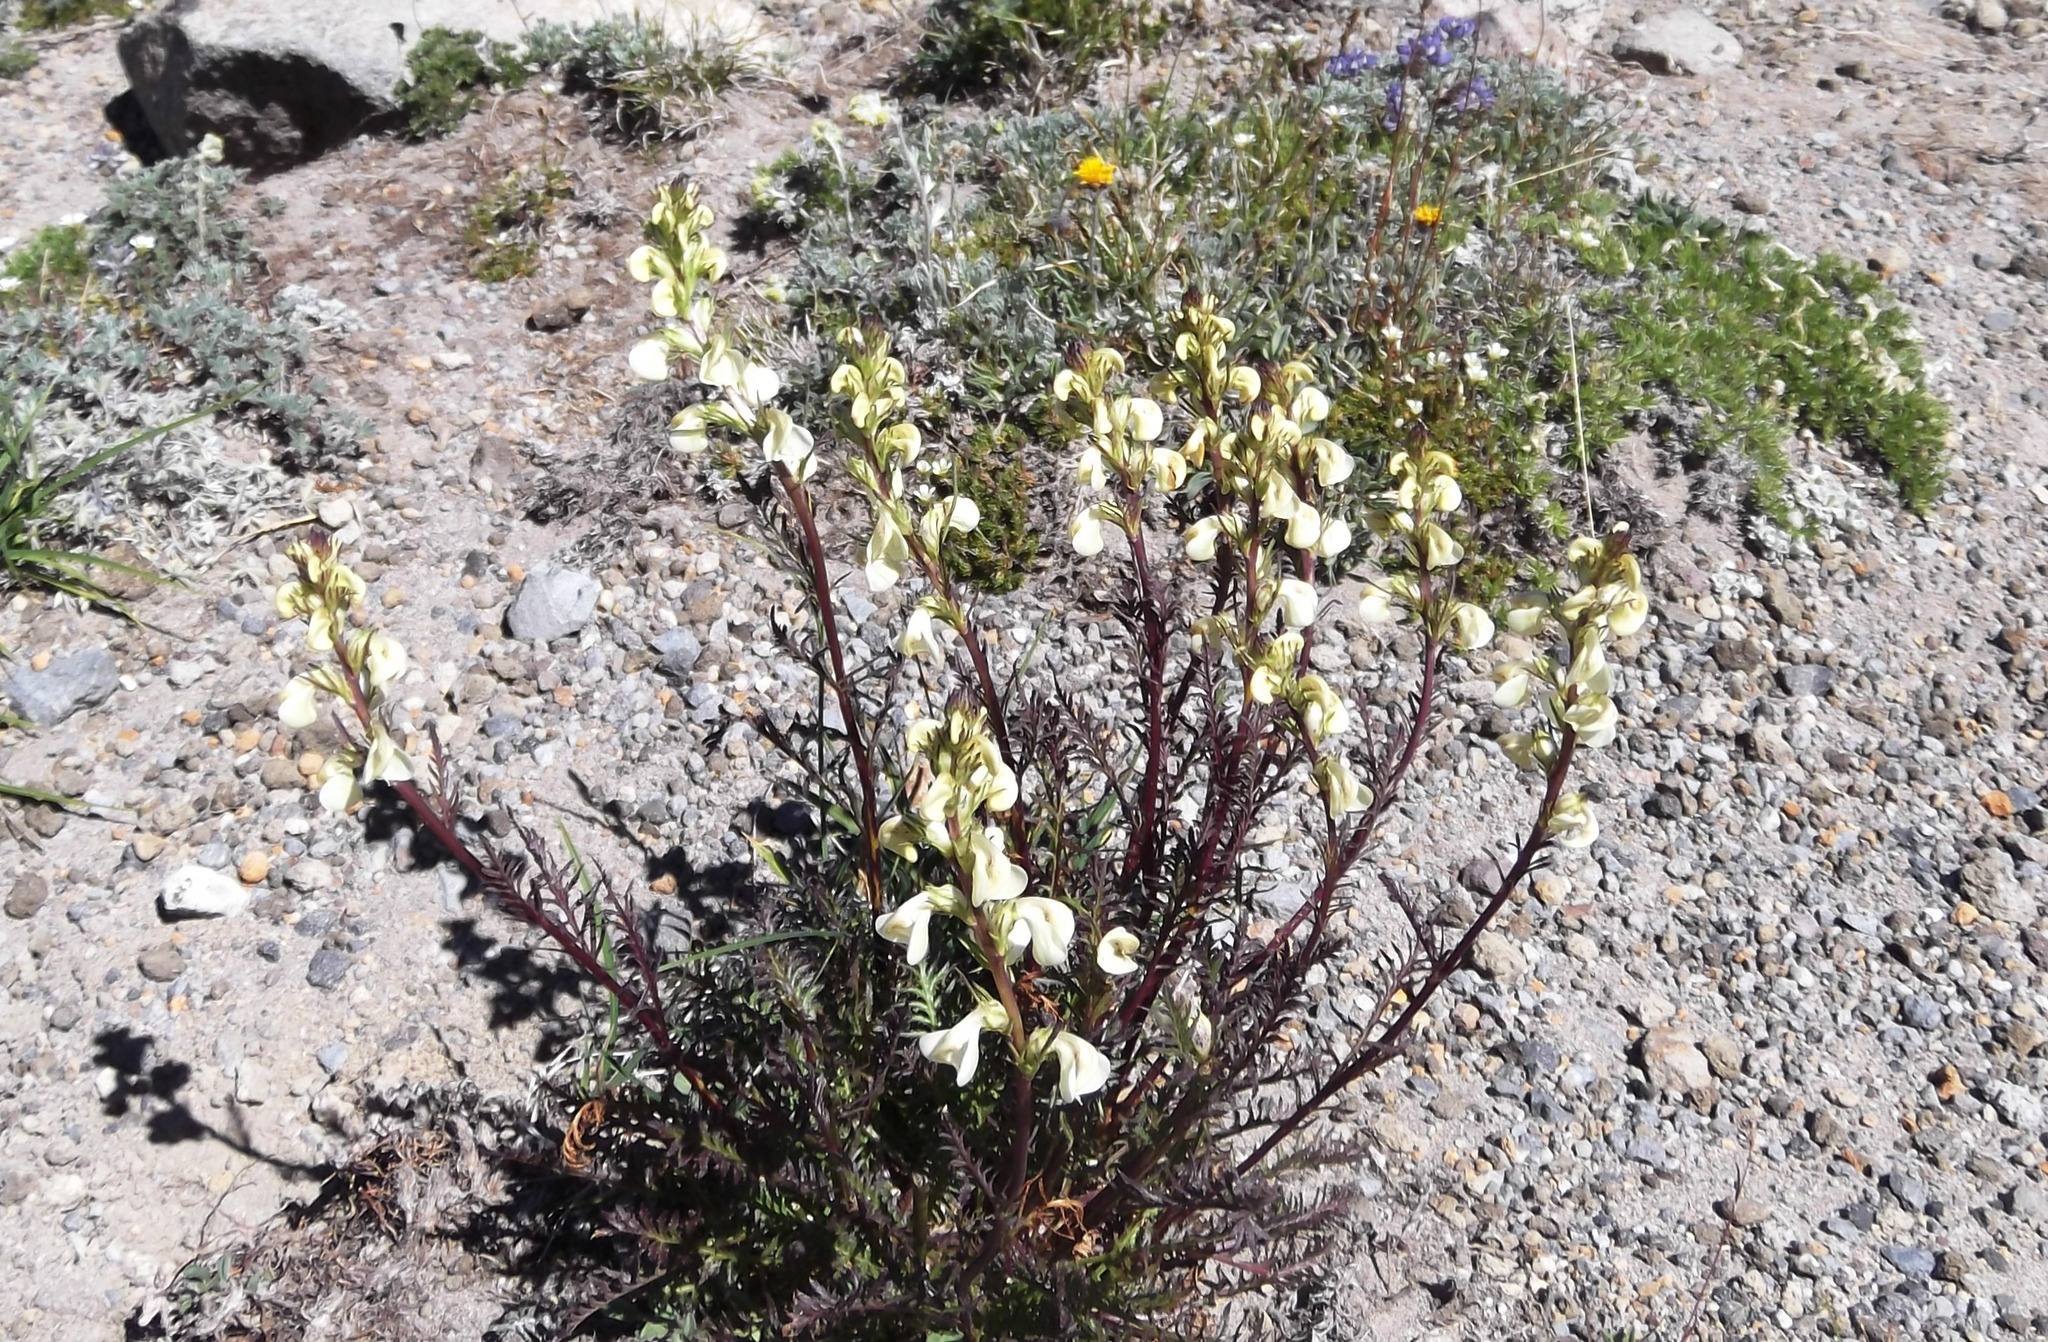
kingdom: Plantae
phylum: Tracheophyta
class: Magnoliopsida
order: Lamiales
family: Orobanchaceae
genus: Pedicularis
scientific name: Pedicularis contorta
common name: Coiled lousewort
